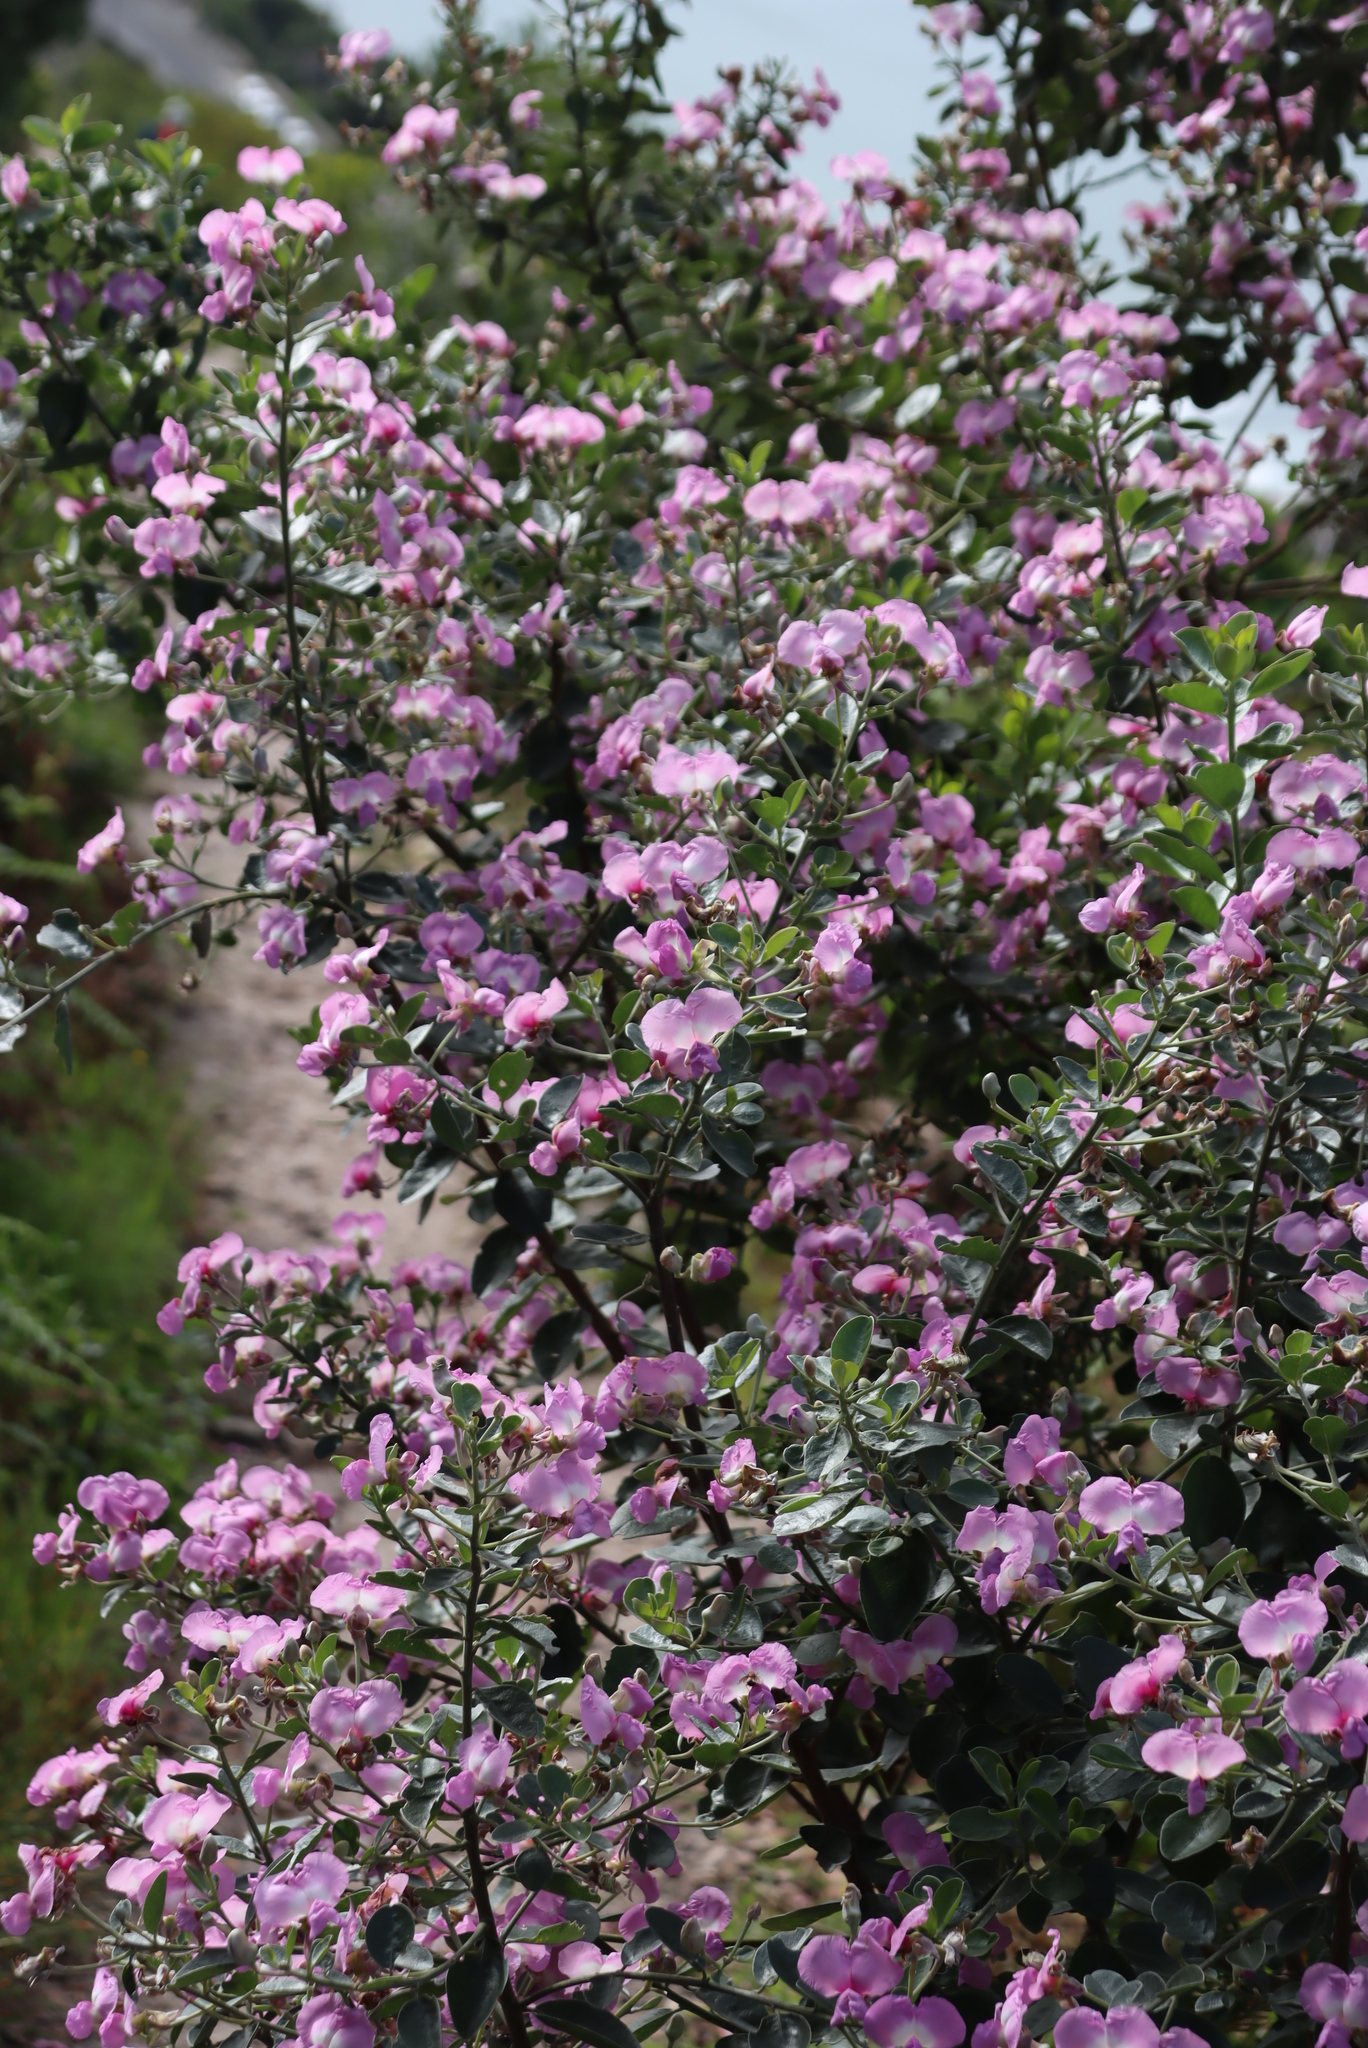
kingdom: Plantae
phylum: Tracheophyta
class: Magnoliopsida
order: Fabales
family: Fabaceae
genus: Podalyria
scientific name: Podalyria calyptrata
